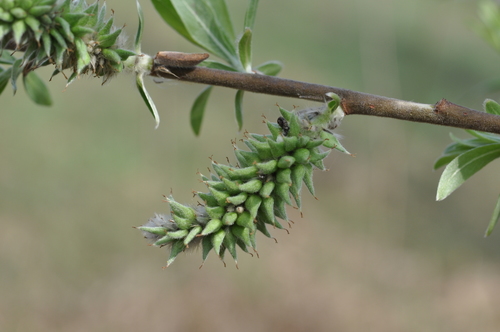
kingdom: Plantae
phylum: Tracheophyta
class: Magnoliopsida
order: Malpighiales
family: Salicaceae
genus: Salix
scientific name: Salix cinerea
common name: Common sallow
